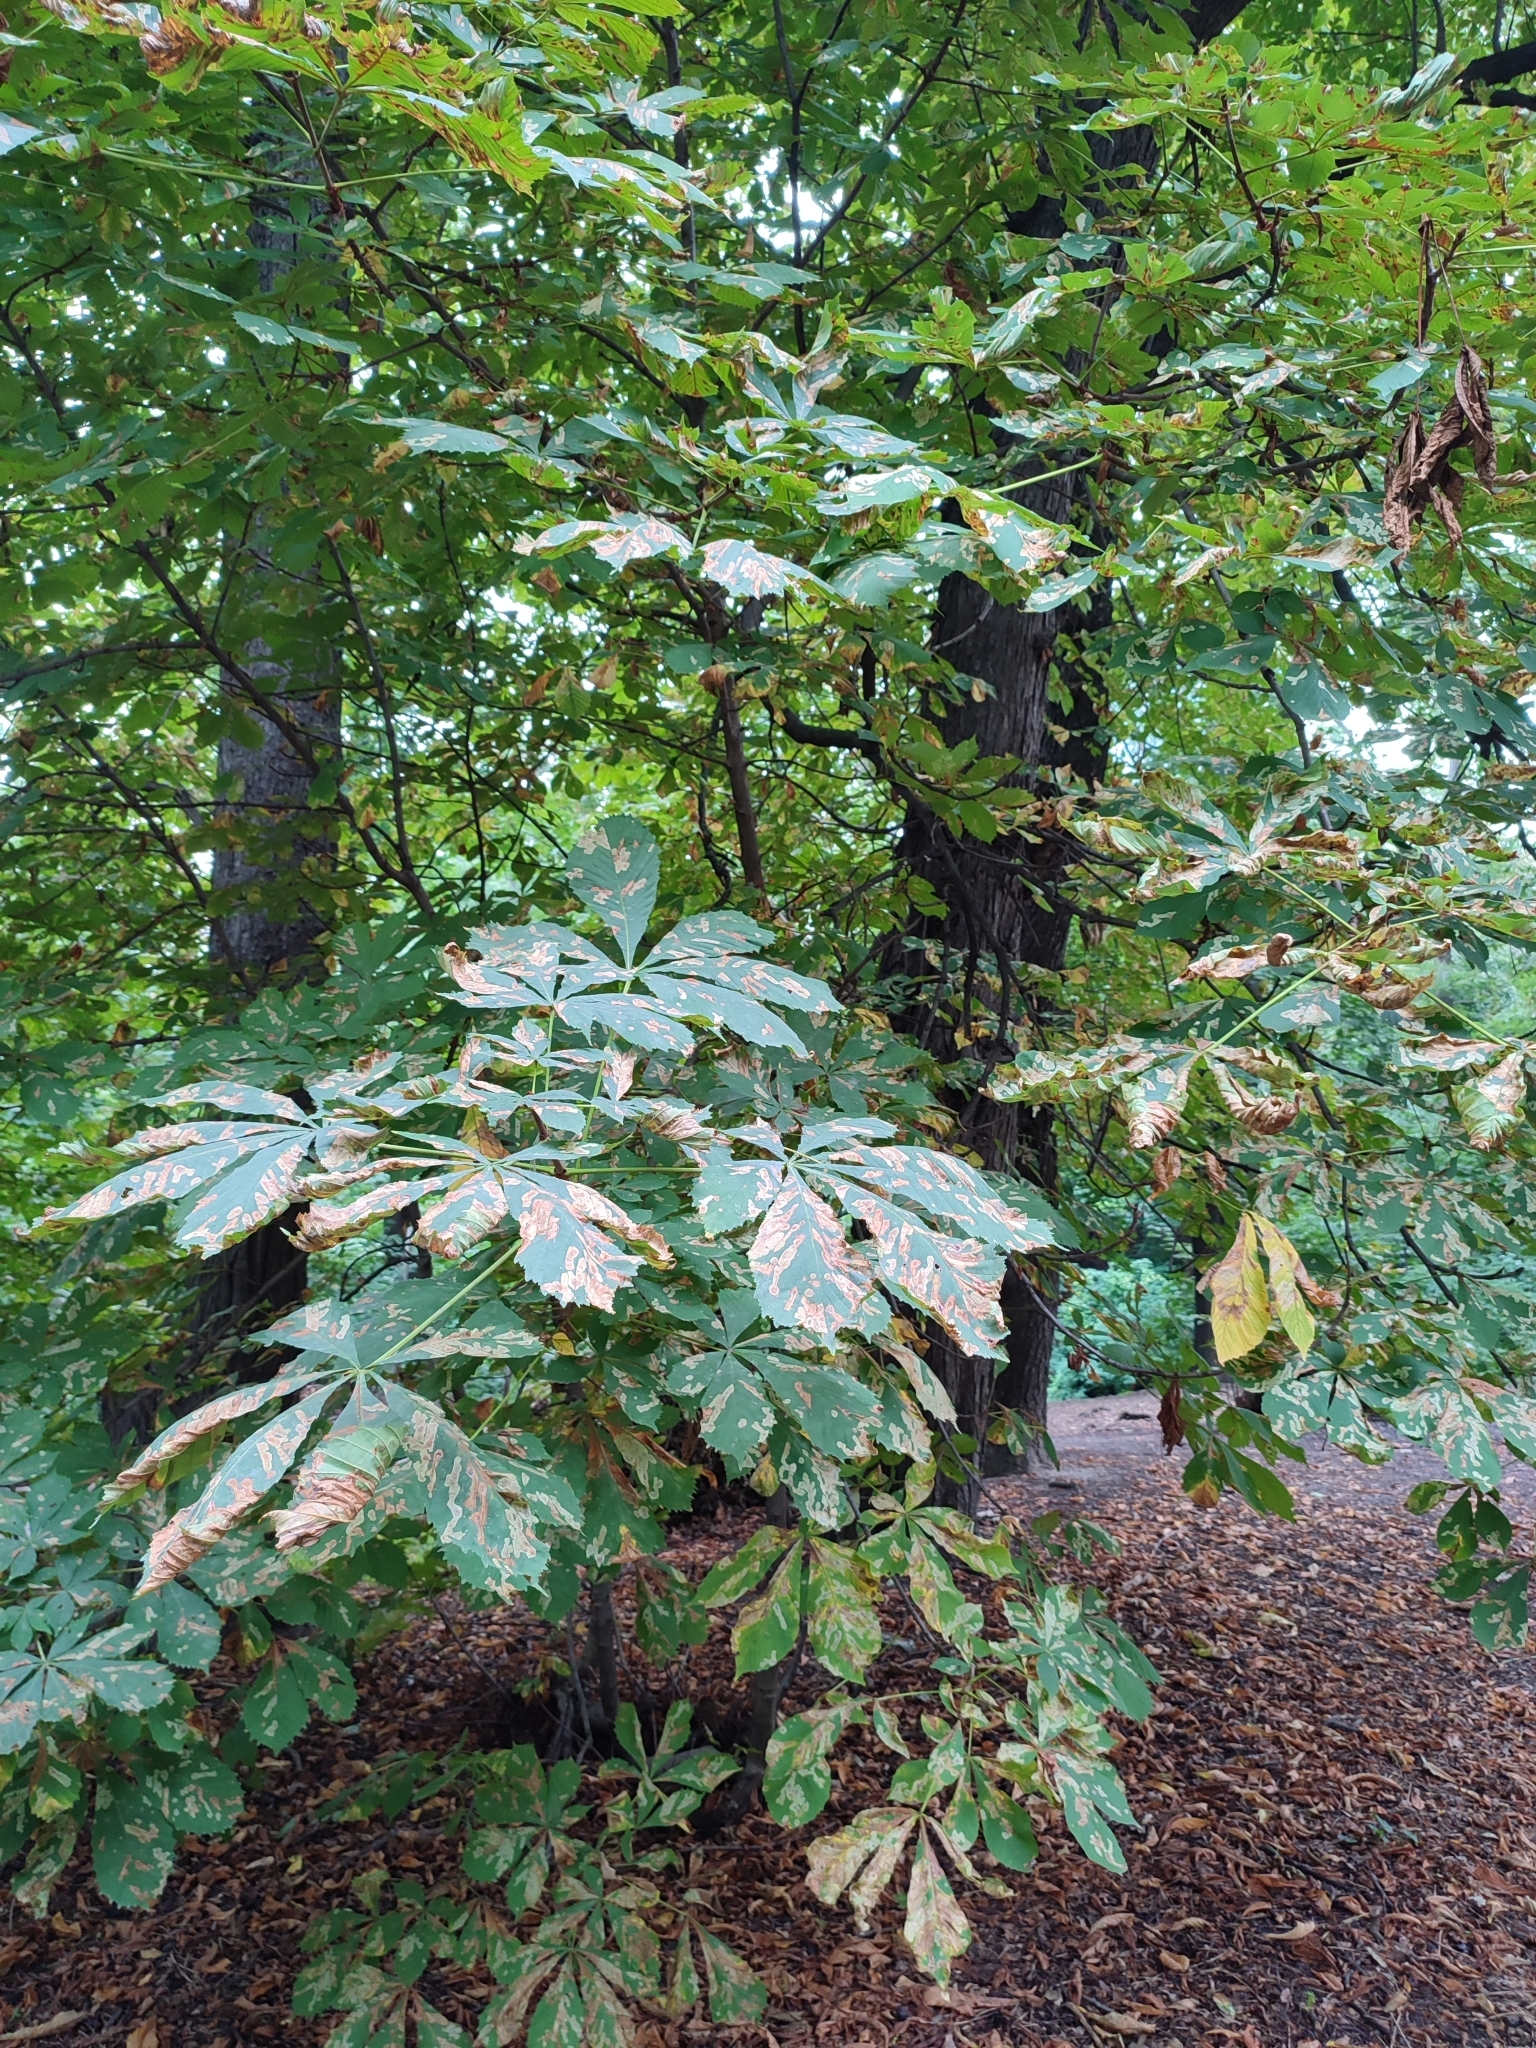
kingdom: Animalia
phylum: Arthropoda
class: Insecta
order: Lepidoptera
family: Gracillariidae
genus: Cameraria
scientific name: Cameraria ohridella
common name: Horse-chestnut leaf-miner
